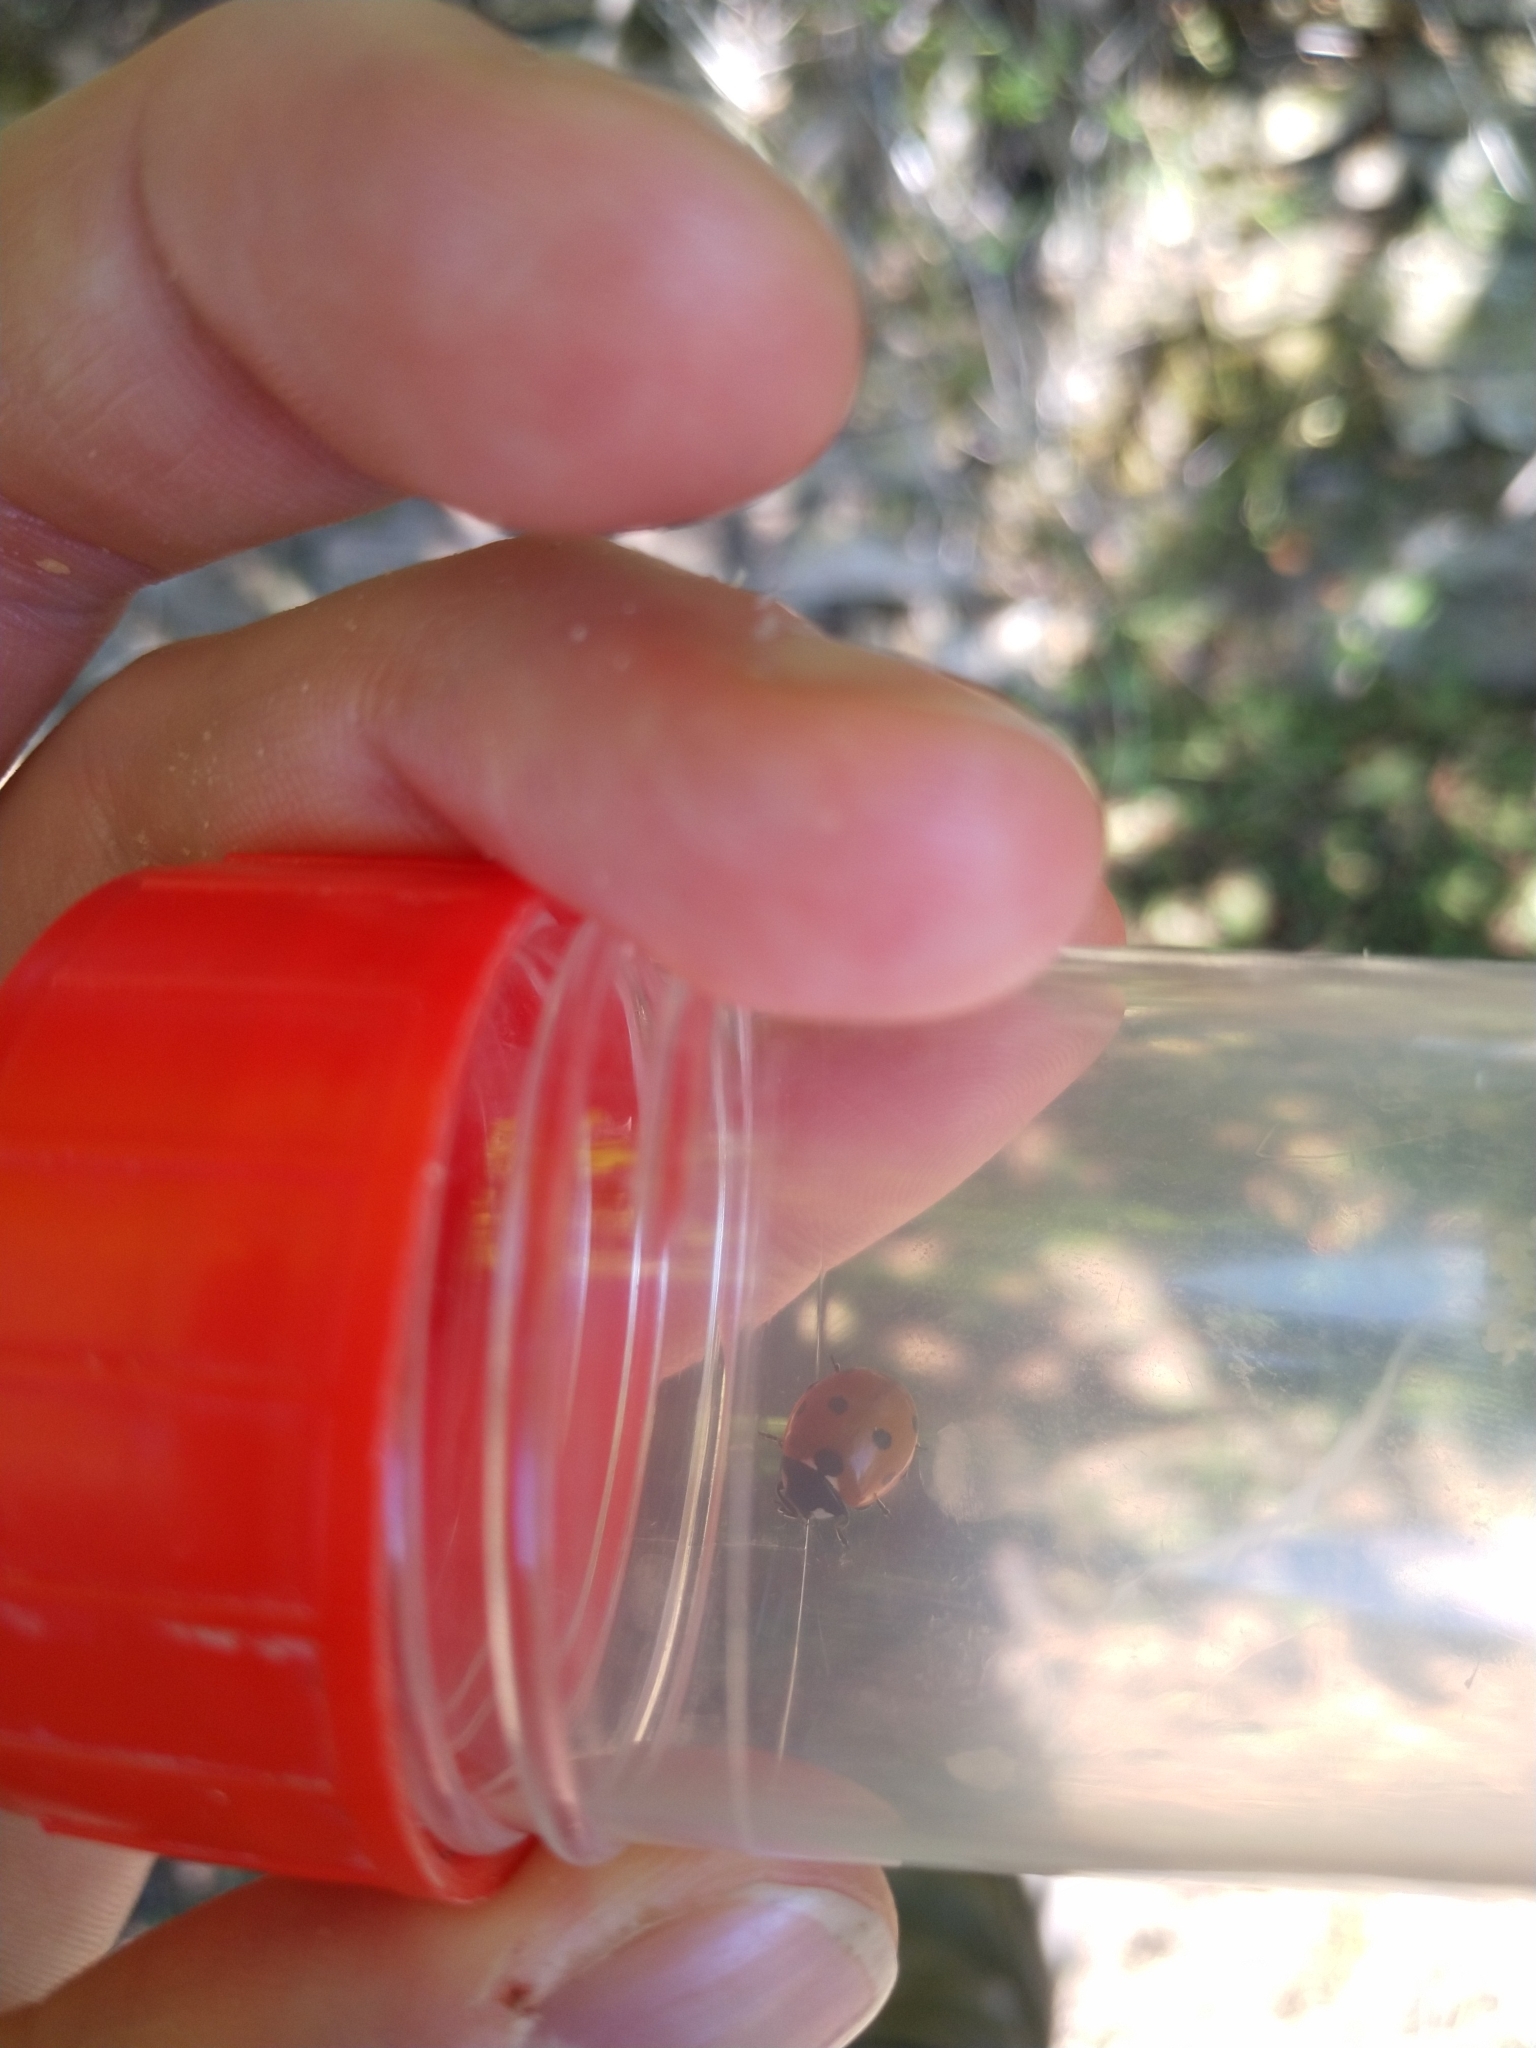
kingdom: Animalia
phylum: Arthropoda
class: Insecta
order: Coleoptera
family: Coccinellidae
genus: Coccinella
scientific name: Coccinella septempunctata
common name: Sevenspotted lady beetle
